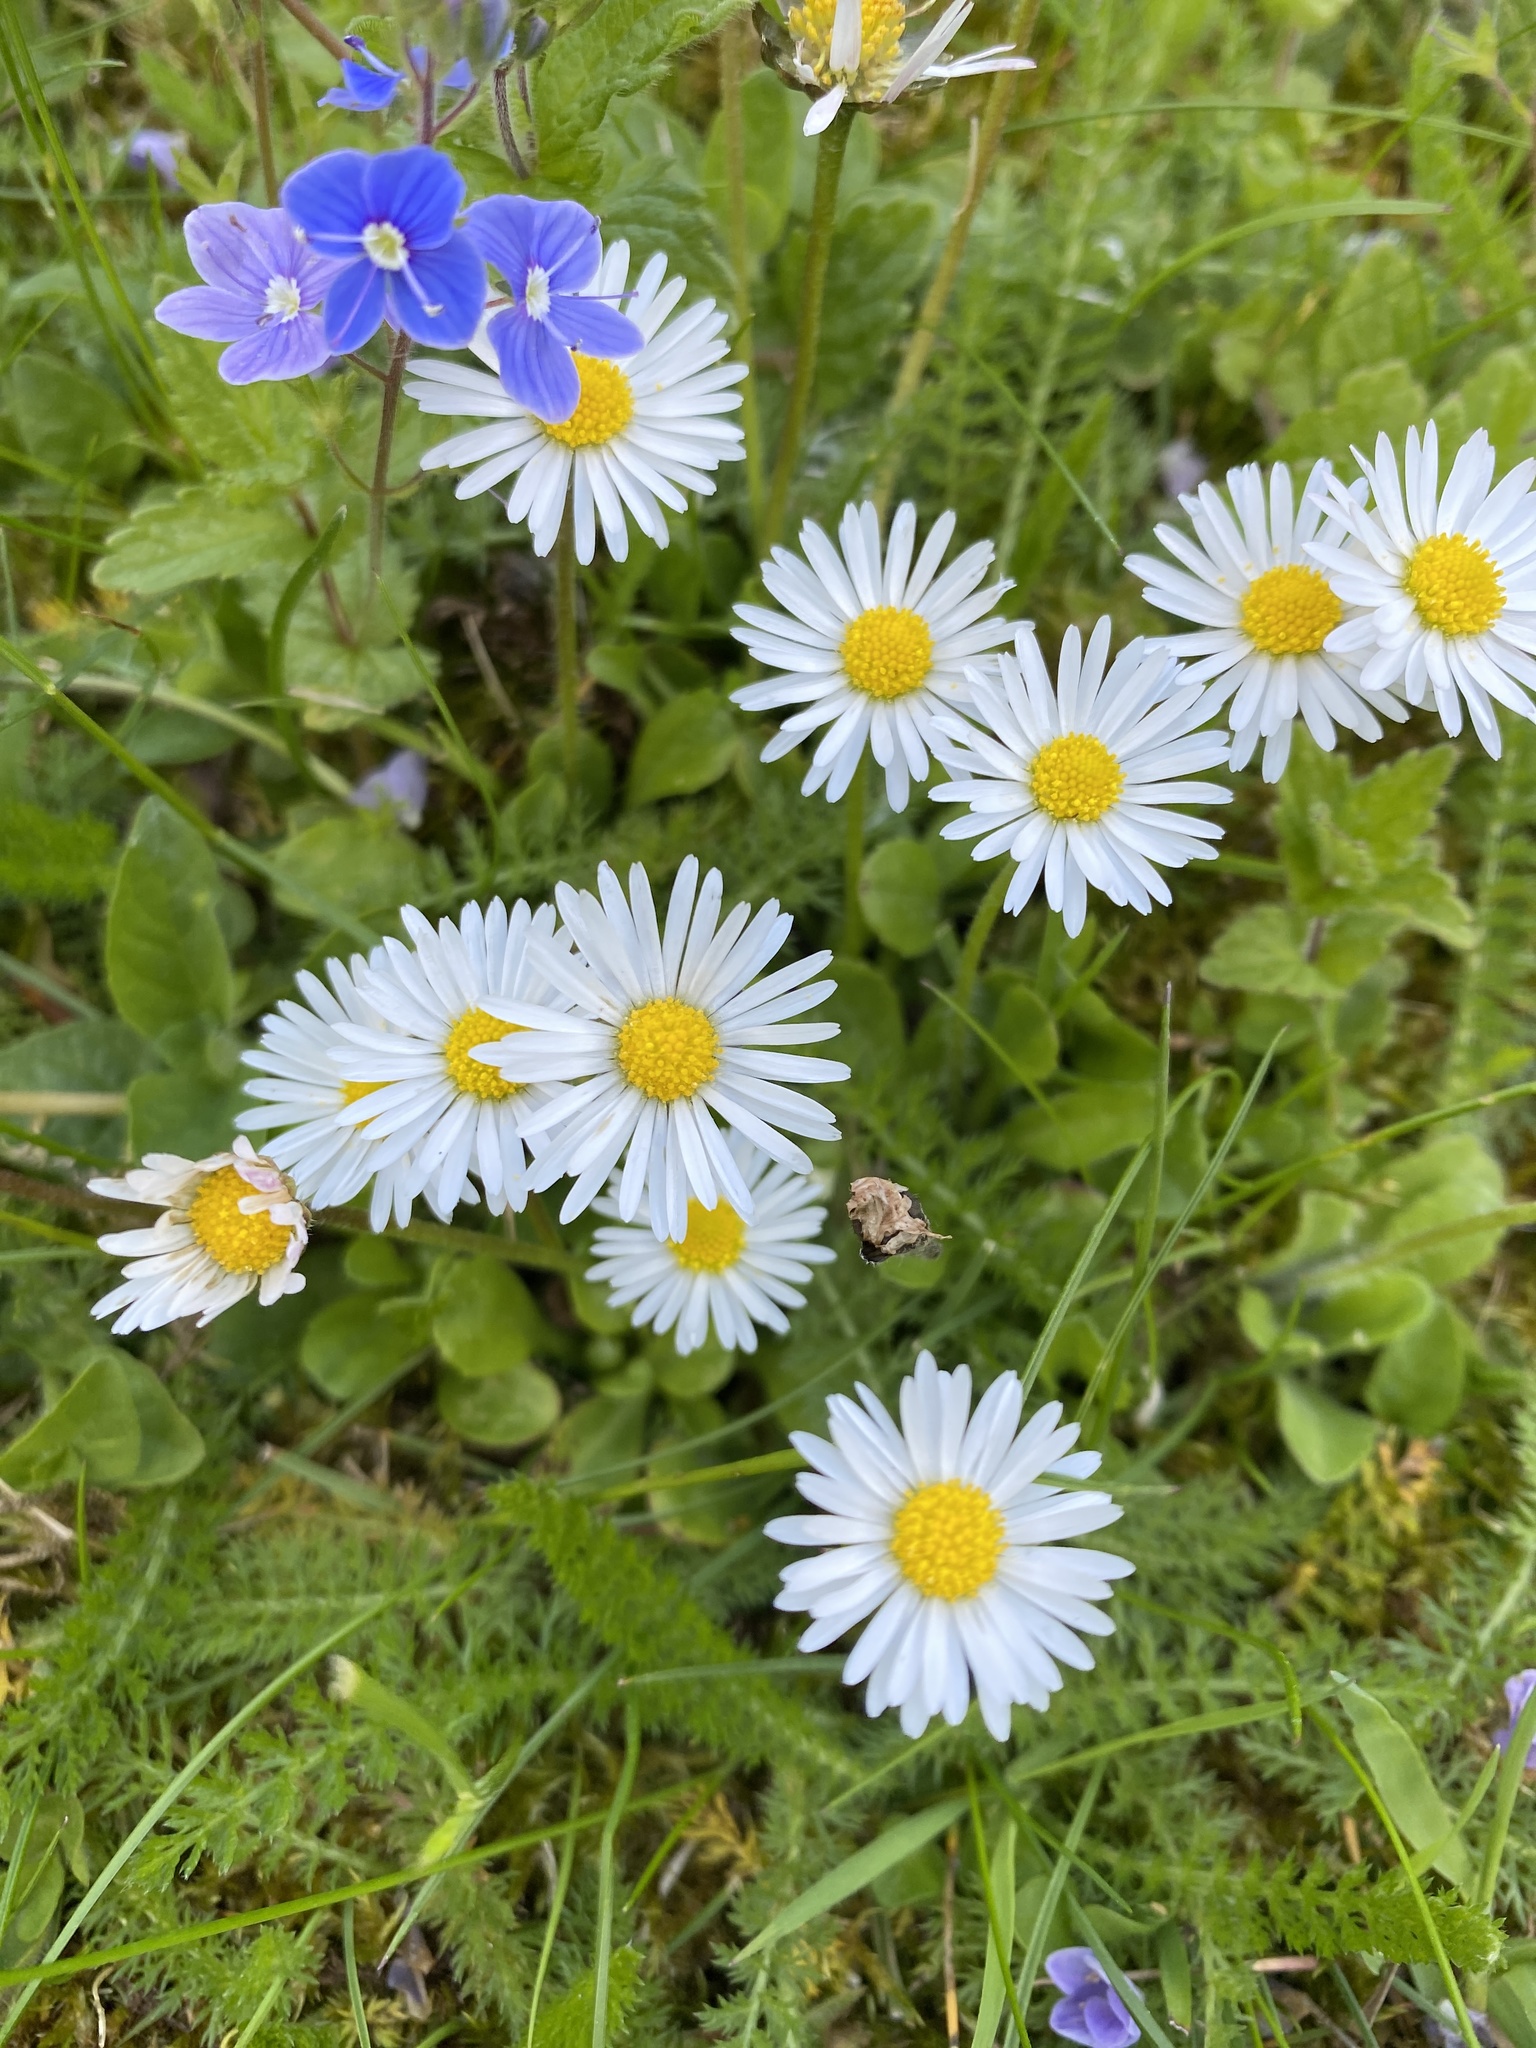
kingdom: Plantae
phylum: Tracheophyta
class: Magnoliopsida
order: Asterales
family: Asteraceae
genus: Bellis
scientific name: Bellis perennis
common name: Lawndaisy
